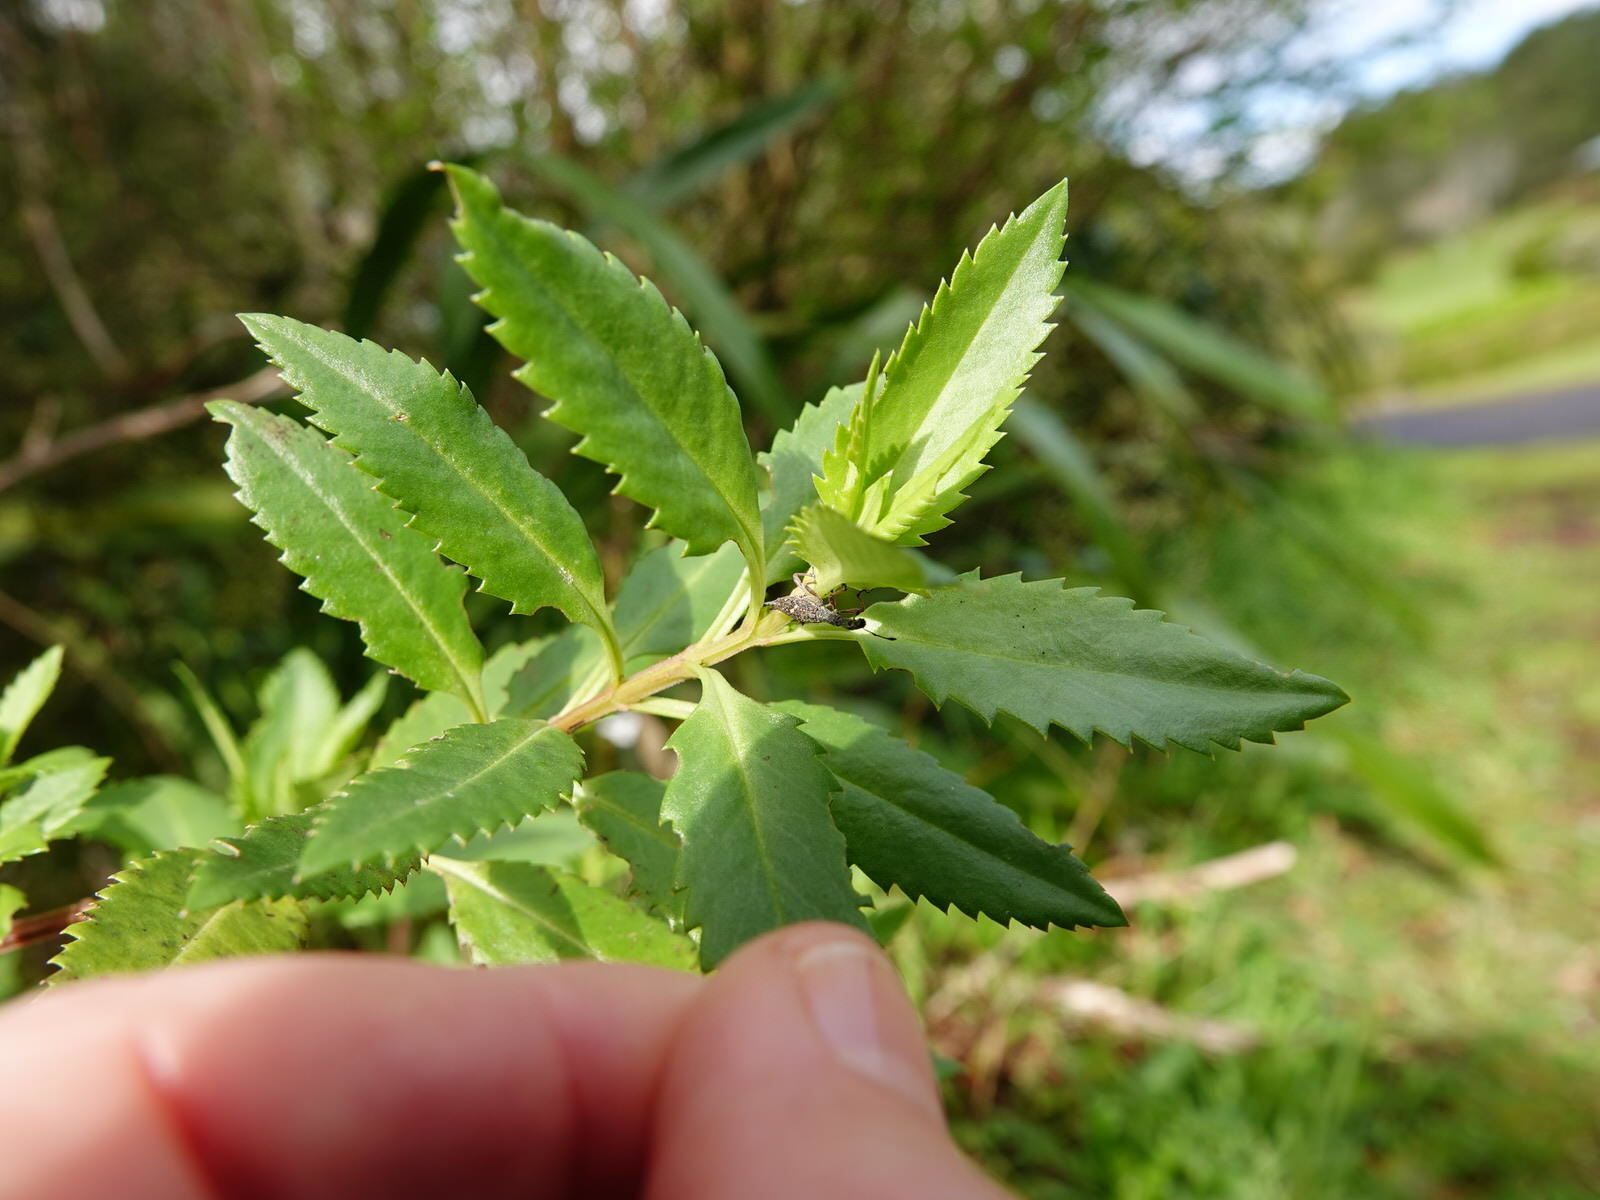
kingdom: Animalia
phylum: Arthropoda
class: Insecta
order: Coleoptera
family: Curculionidae
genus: Rhadinosomus
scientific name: Rhadinosomus acuminatus
